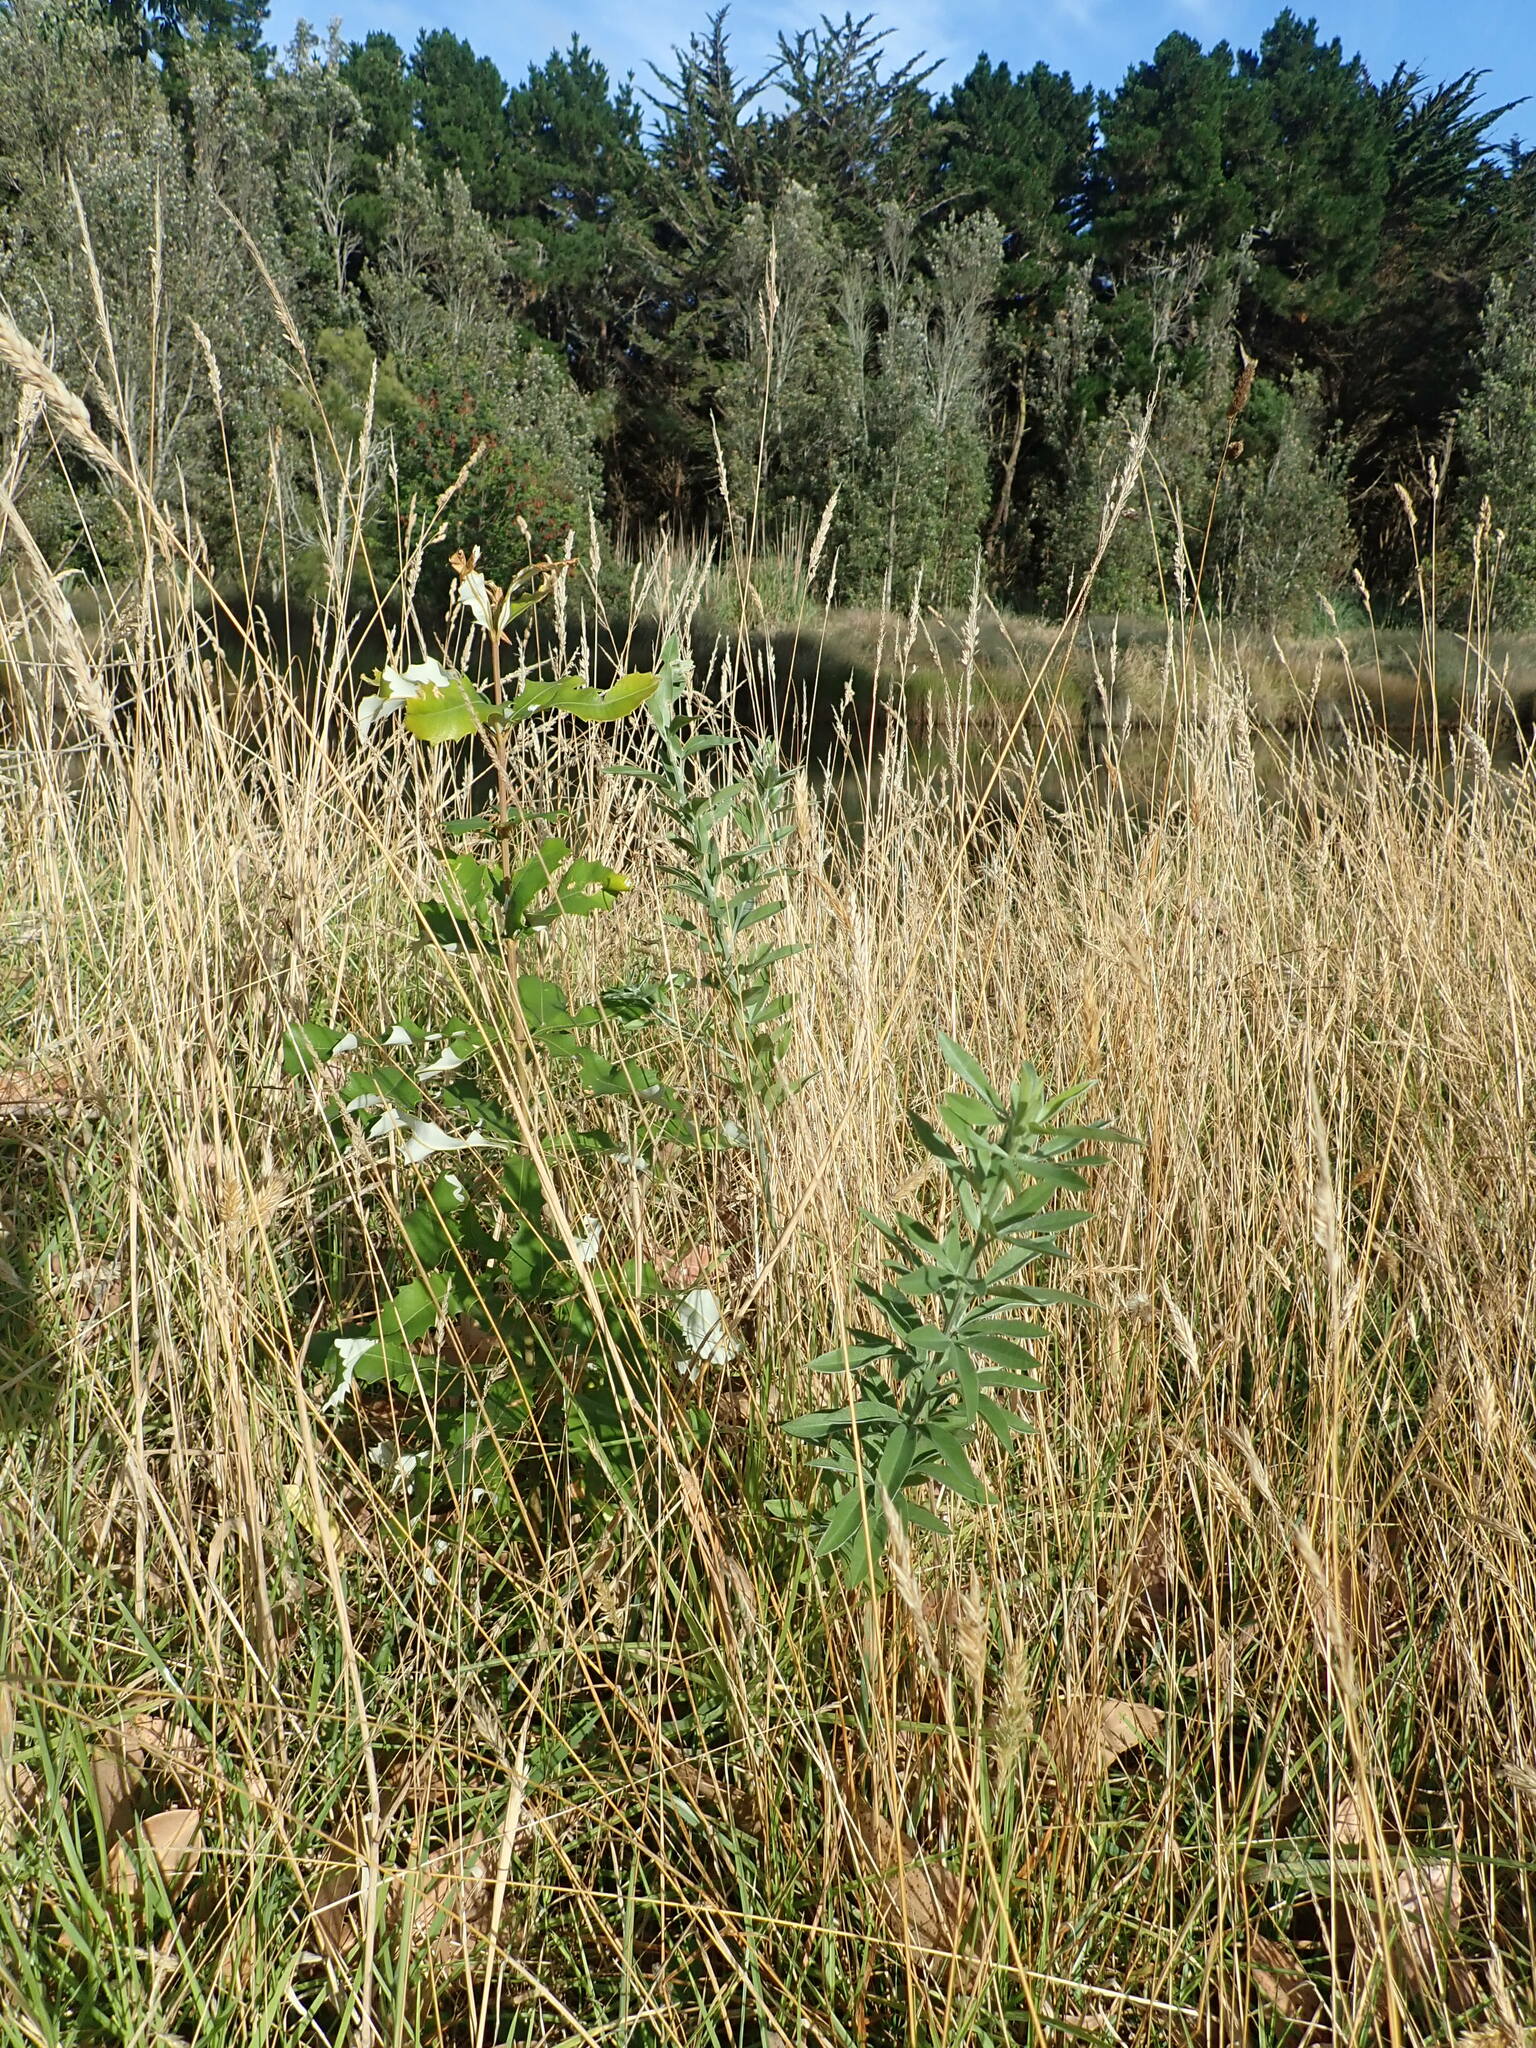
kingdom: Plantae
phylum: Tracheophyta
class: Magnoliopsida
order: Proteales
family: Proteaceae
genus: Banksia
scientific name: Banksia integrifolia
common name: White-honeysuckle
